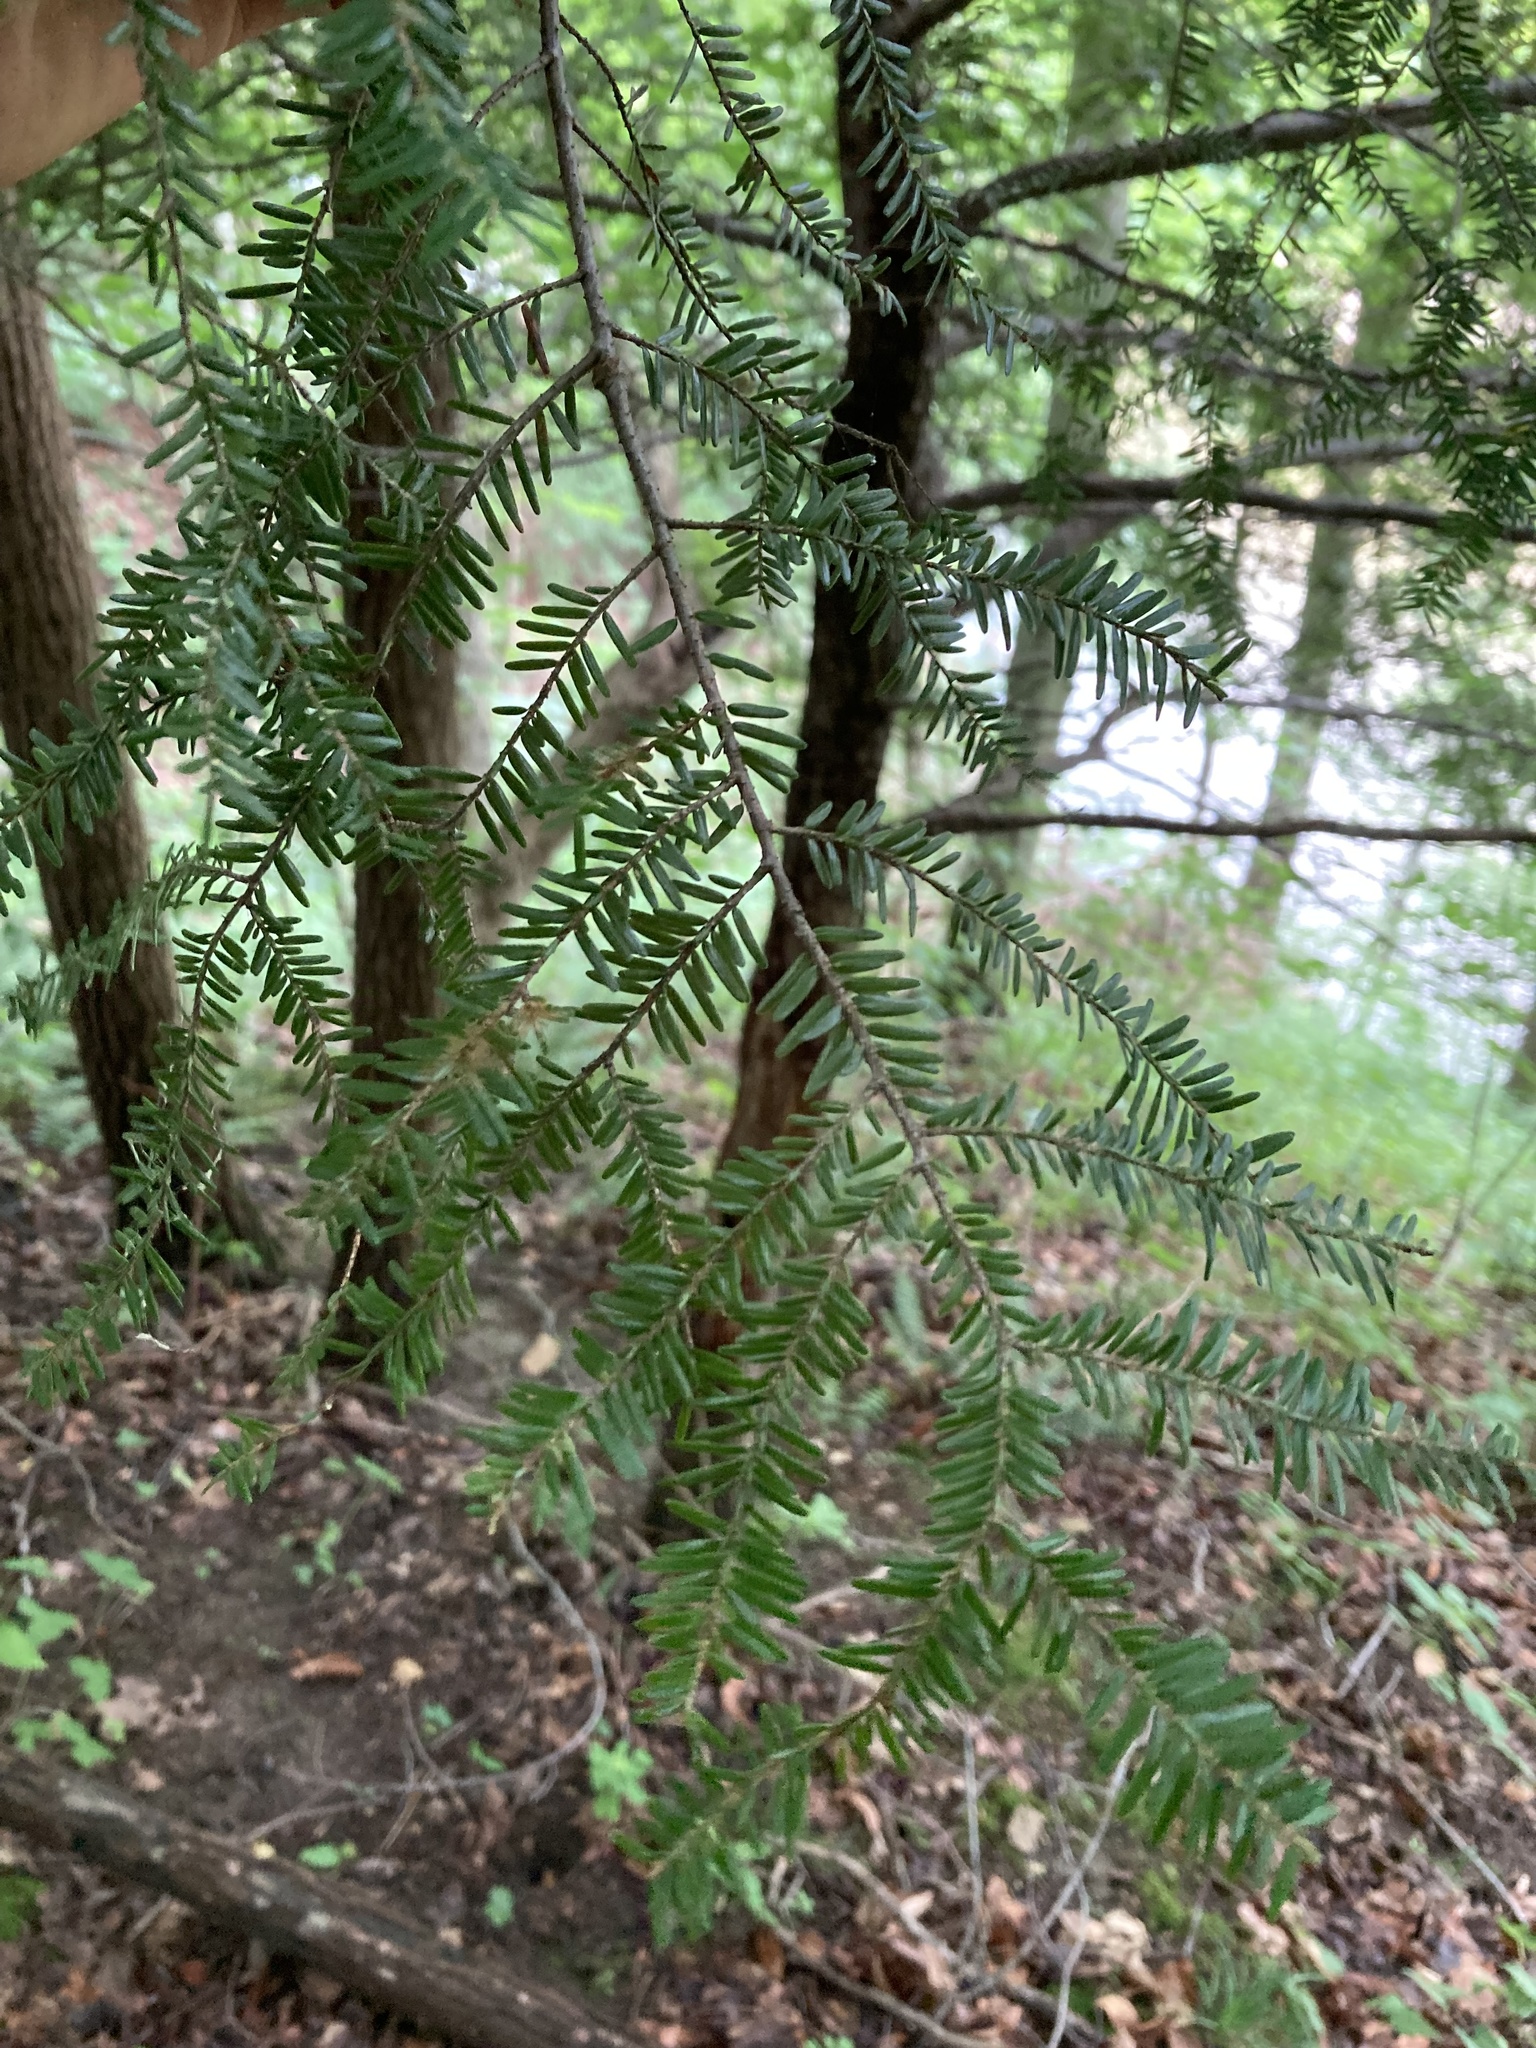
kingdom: Plantae
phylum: Tracheophyta
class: Pinopsida
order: Pinales
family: Pinaceae
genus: Tsuga
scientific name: Tsuga canadensis
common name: Eastern hemlock
